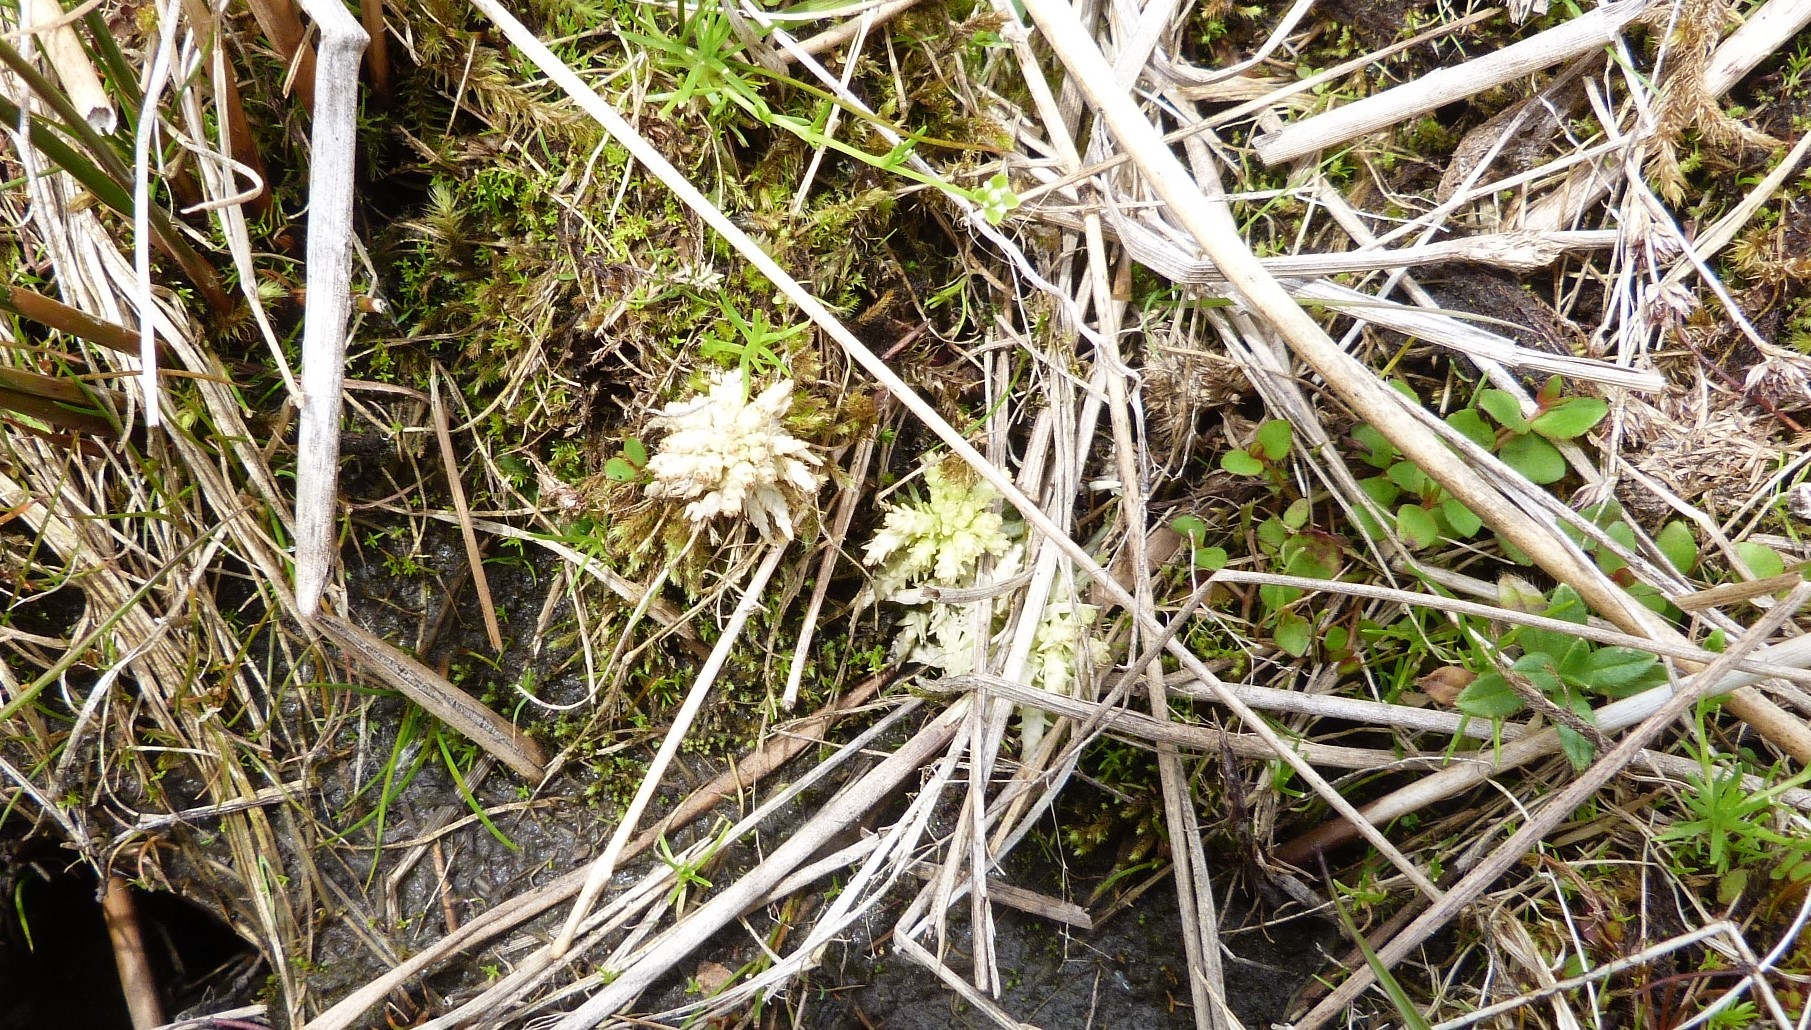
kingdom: Plantae
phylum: Bryophyta
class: Sphagnopsida
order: Sphagnales
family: Sphagnaceae
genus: Sphagnum
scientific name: Sphagnum cristatum
